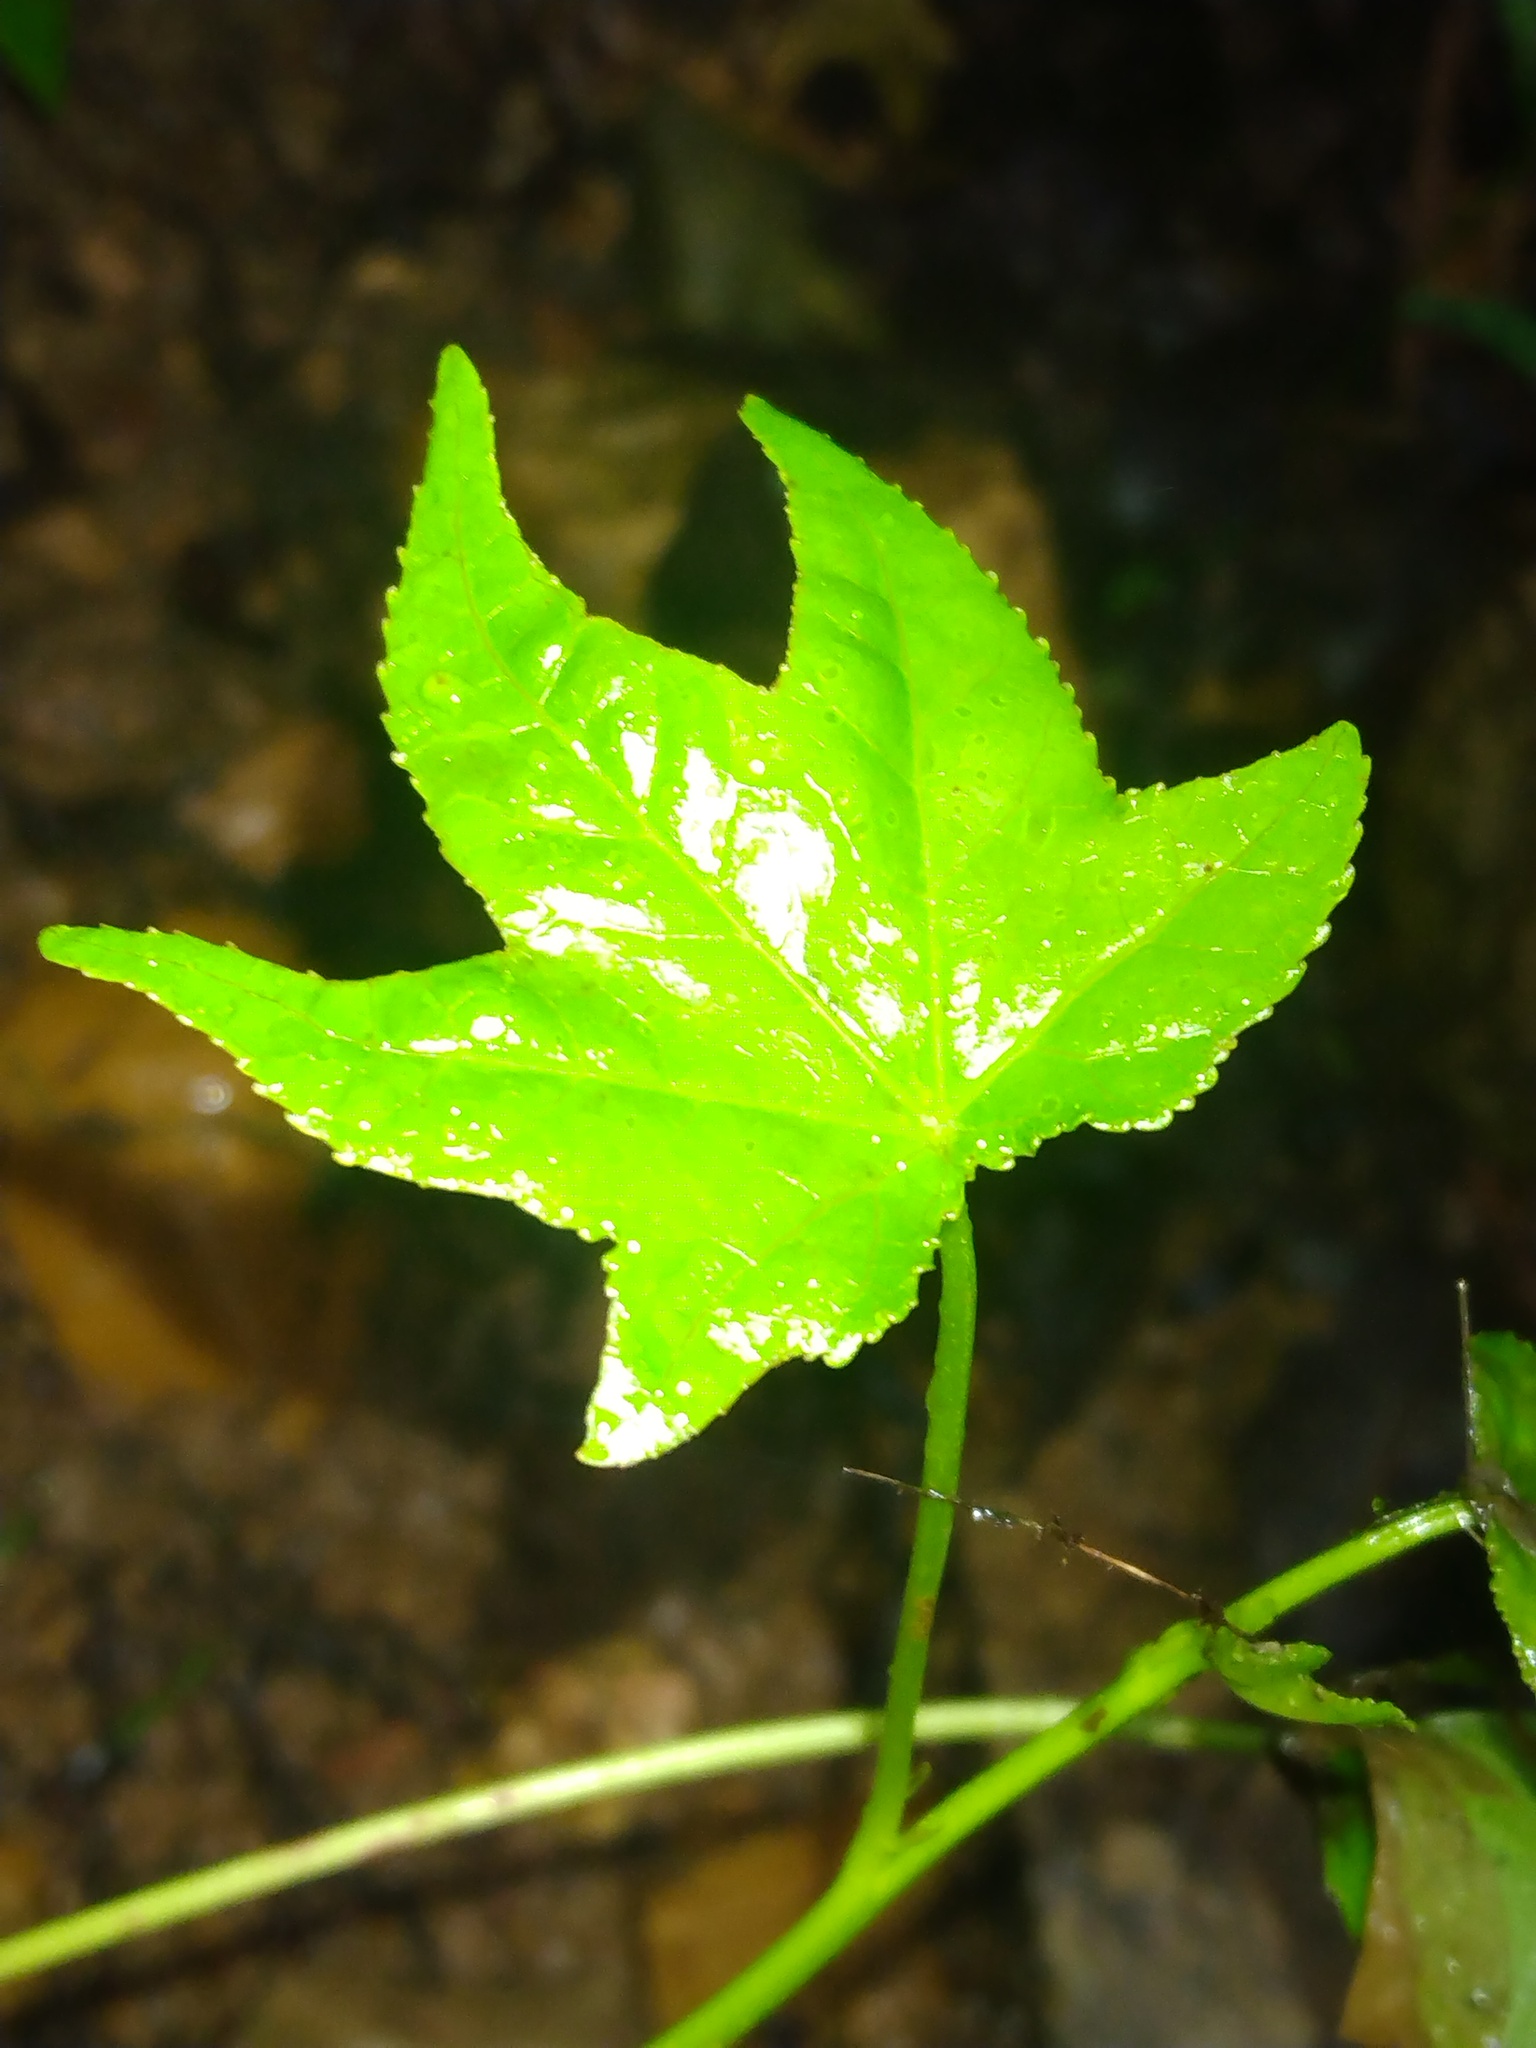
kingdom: Plantae
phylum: Tracheophyta
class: Magnoliopsida
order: Saxifragales
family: Altingiaceae
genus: Liquidambar
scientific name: Liquidambar styraciflua
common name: Sweet gum
